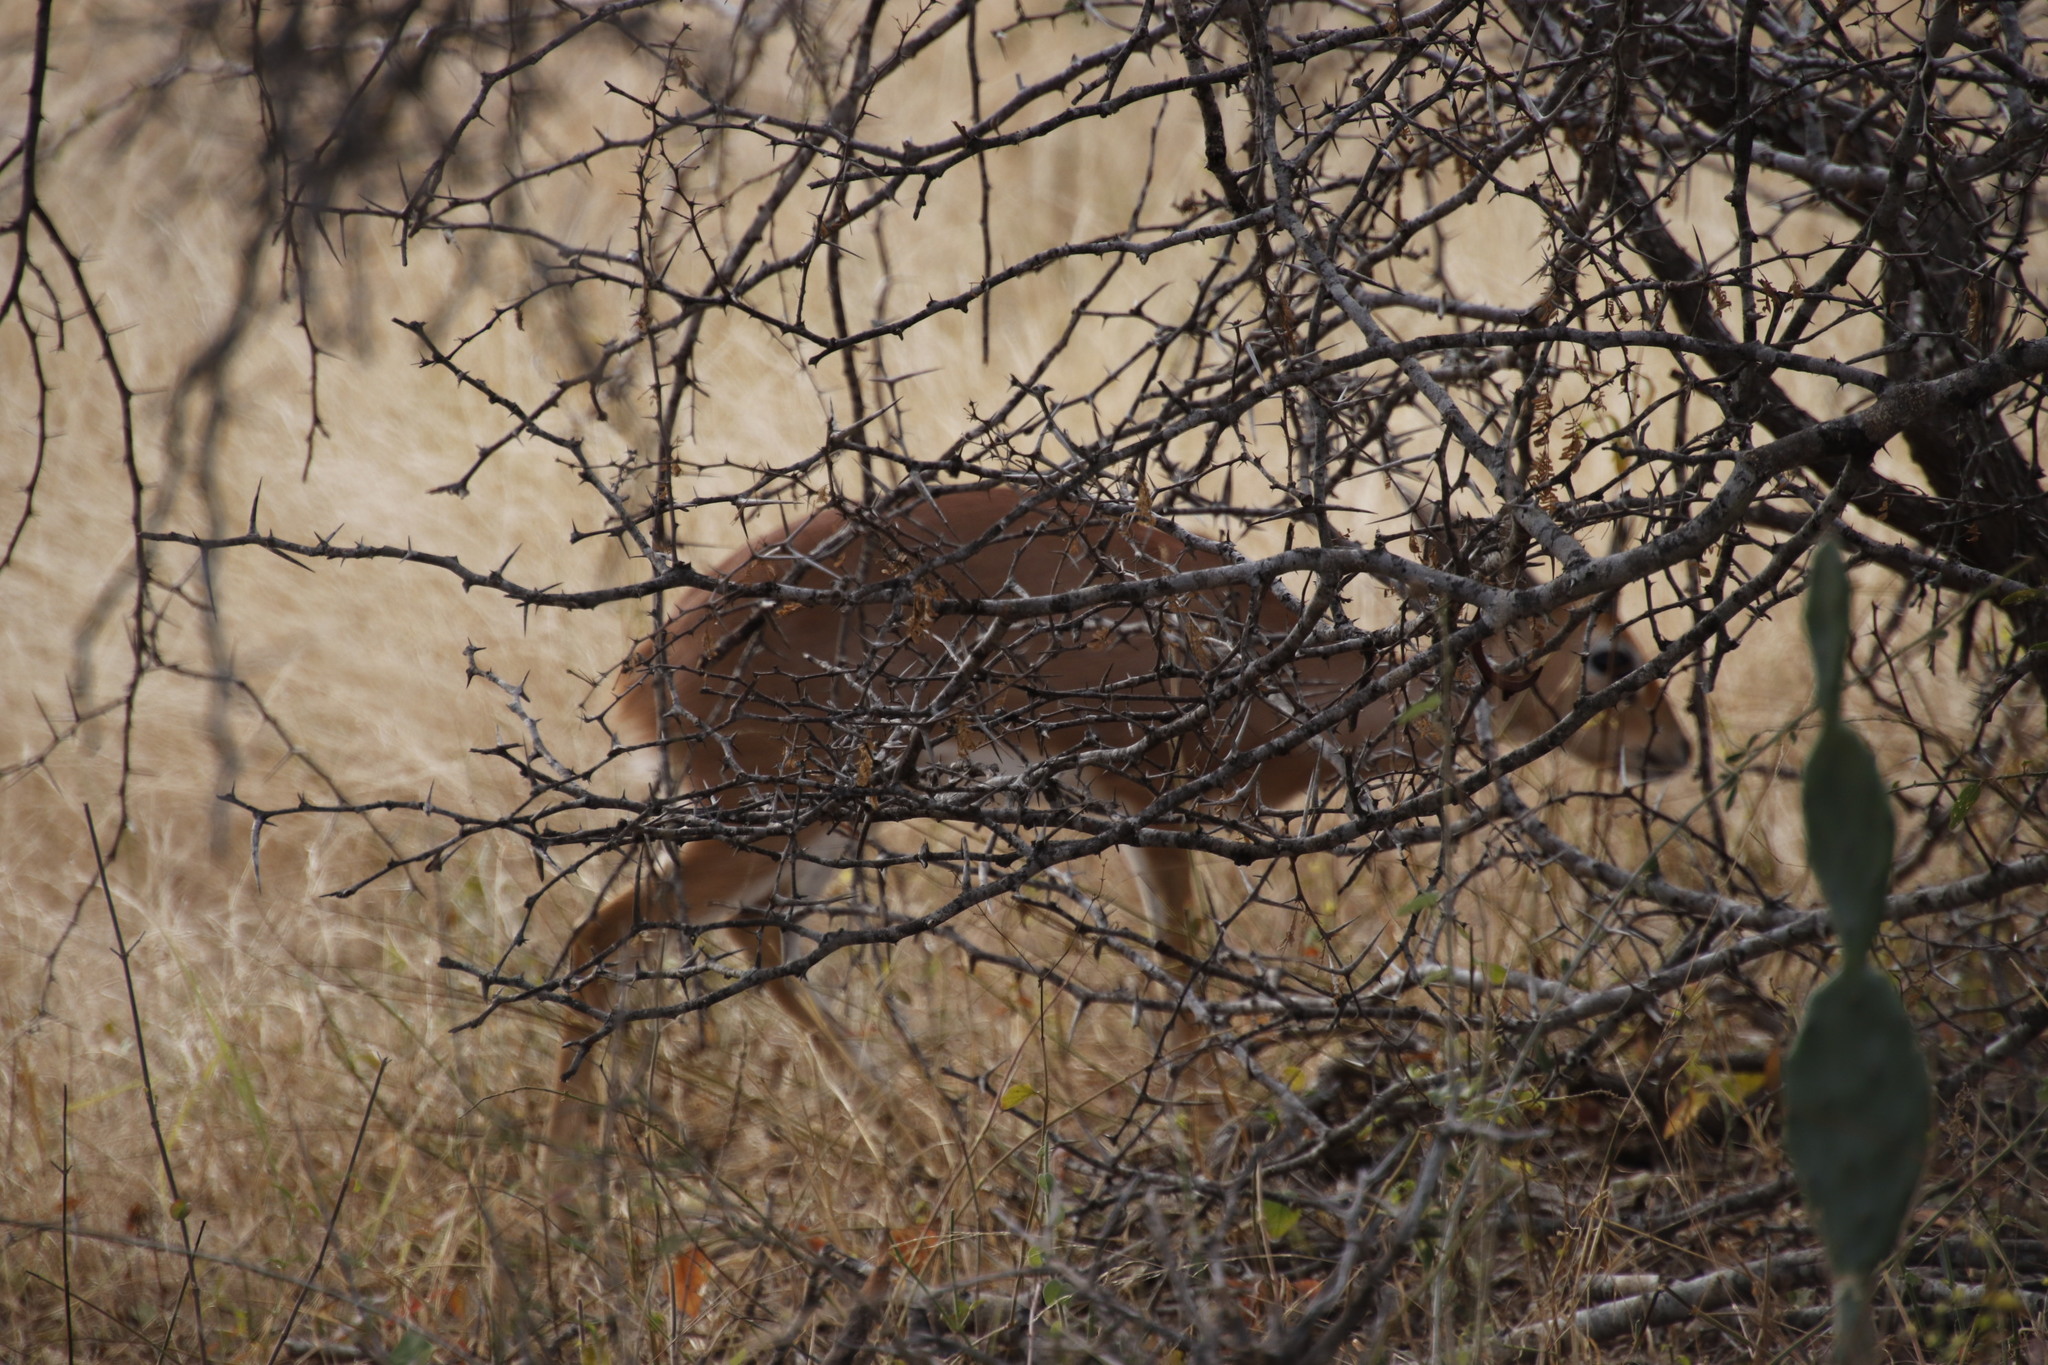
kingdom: Animalia
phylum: Chordata
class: Mammalia
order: Artiodactyla
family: Bovidae
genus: Raphicerus
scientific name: Raphicerus campestris
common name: Steenbok
